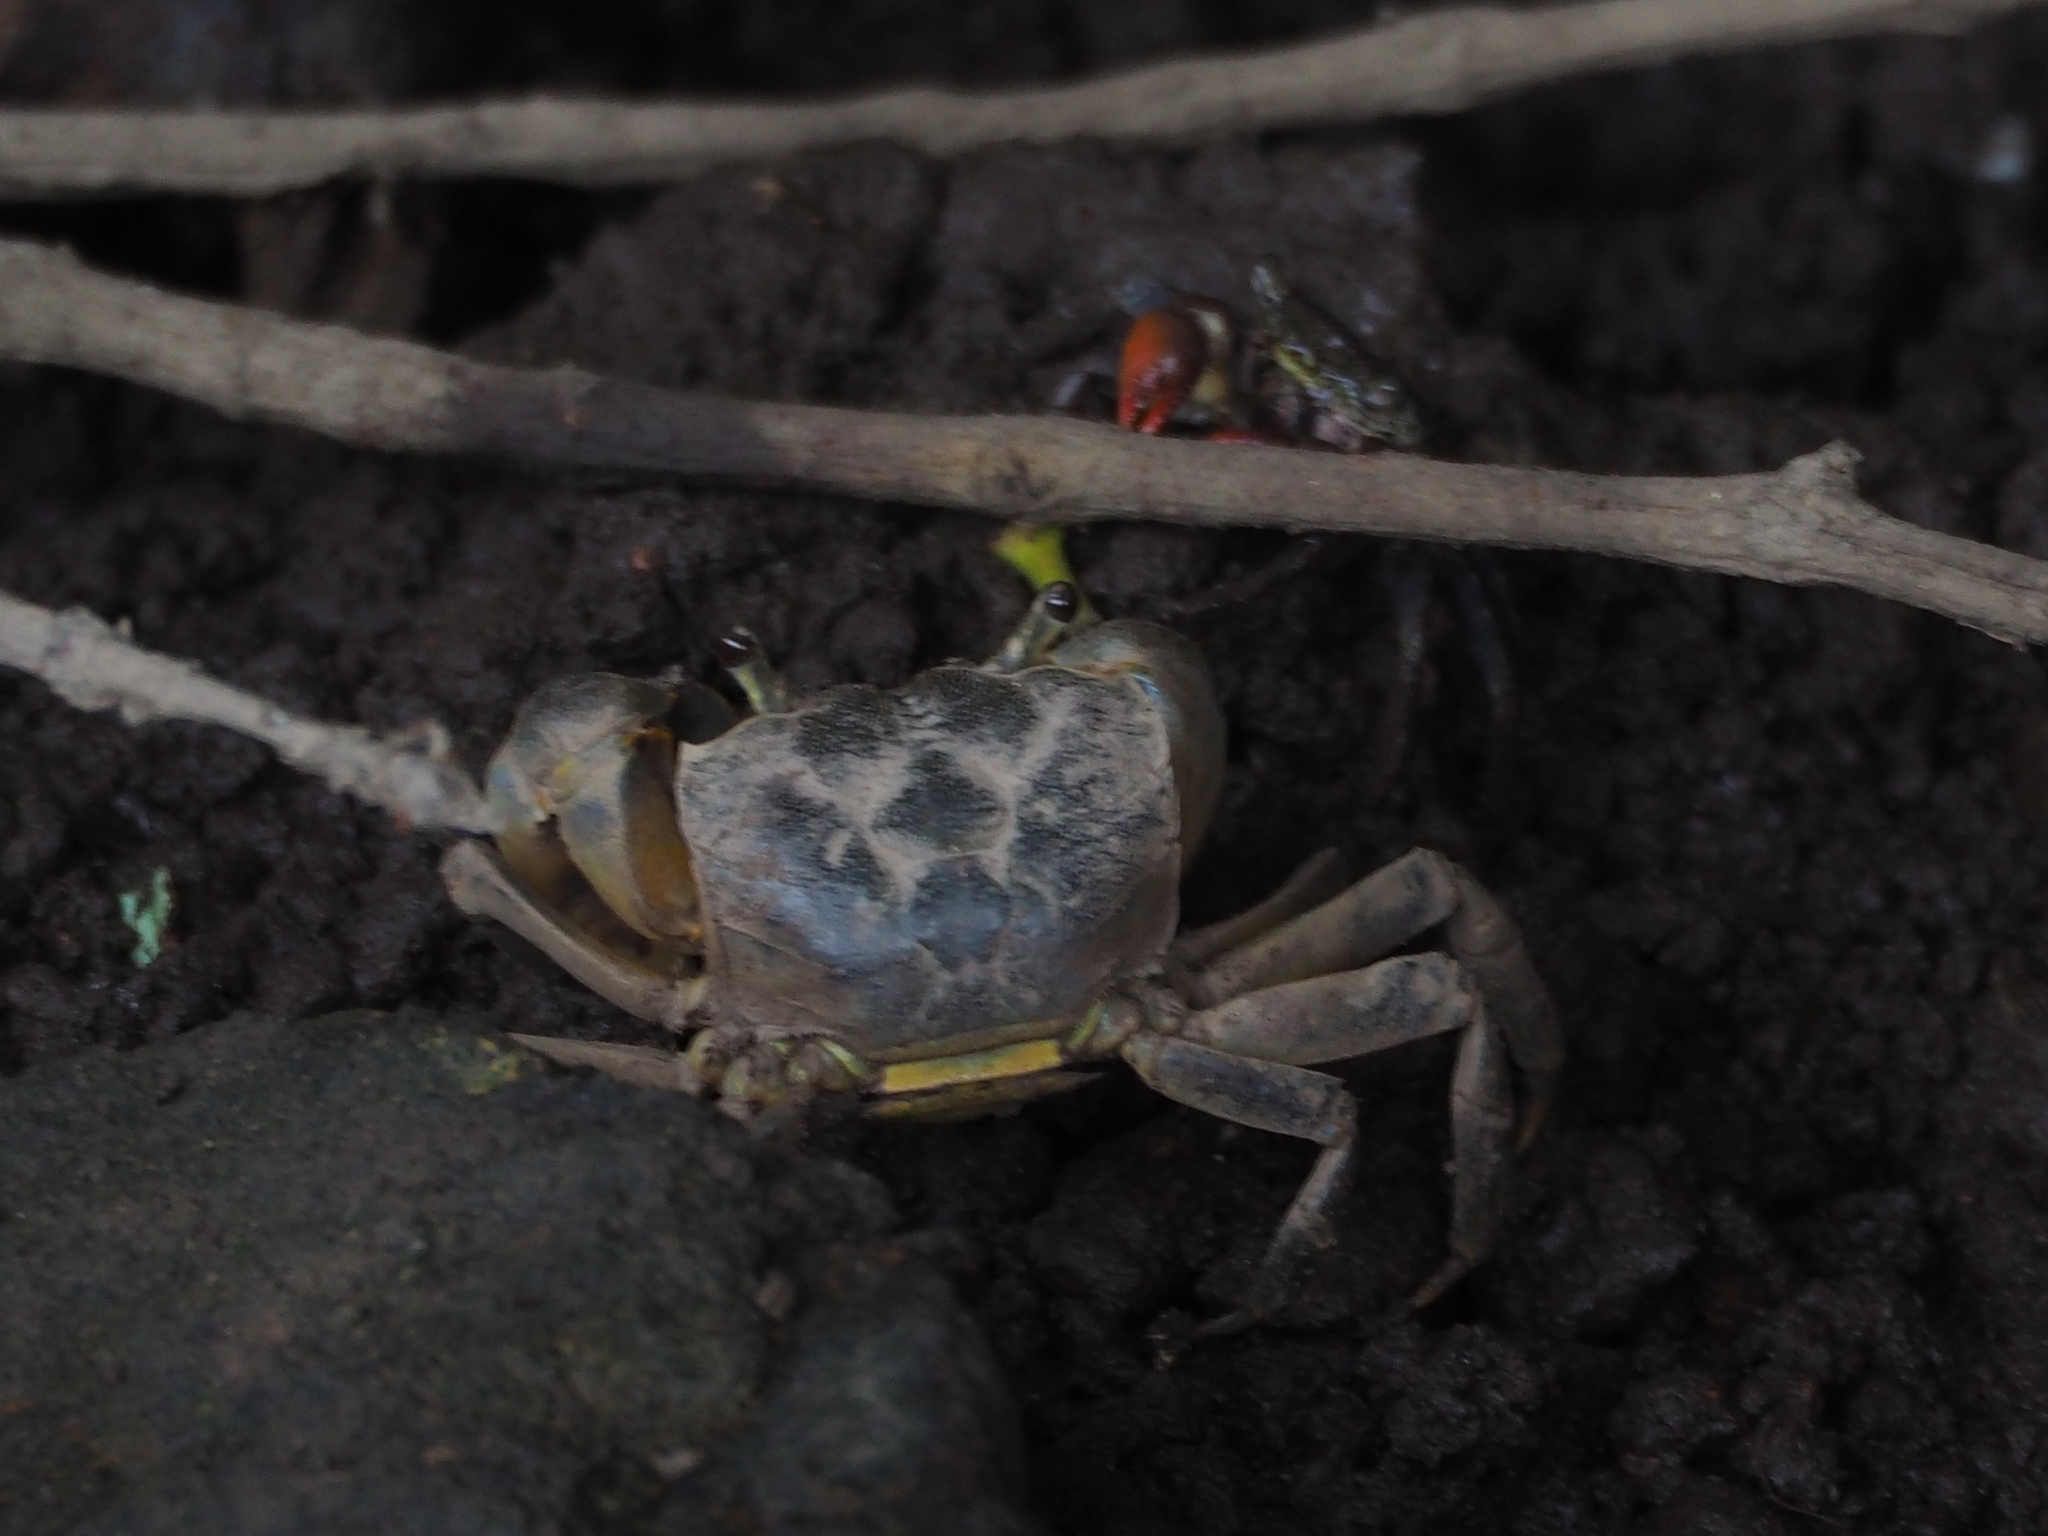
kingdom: Animalia
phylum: Arthropoda
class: Malacostraca
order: Decapoda
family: Varunidae
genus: Helice
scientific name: Helice formosensis
